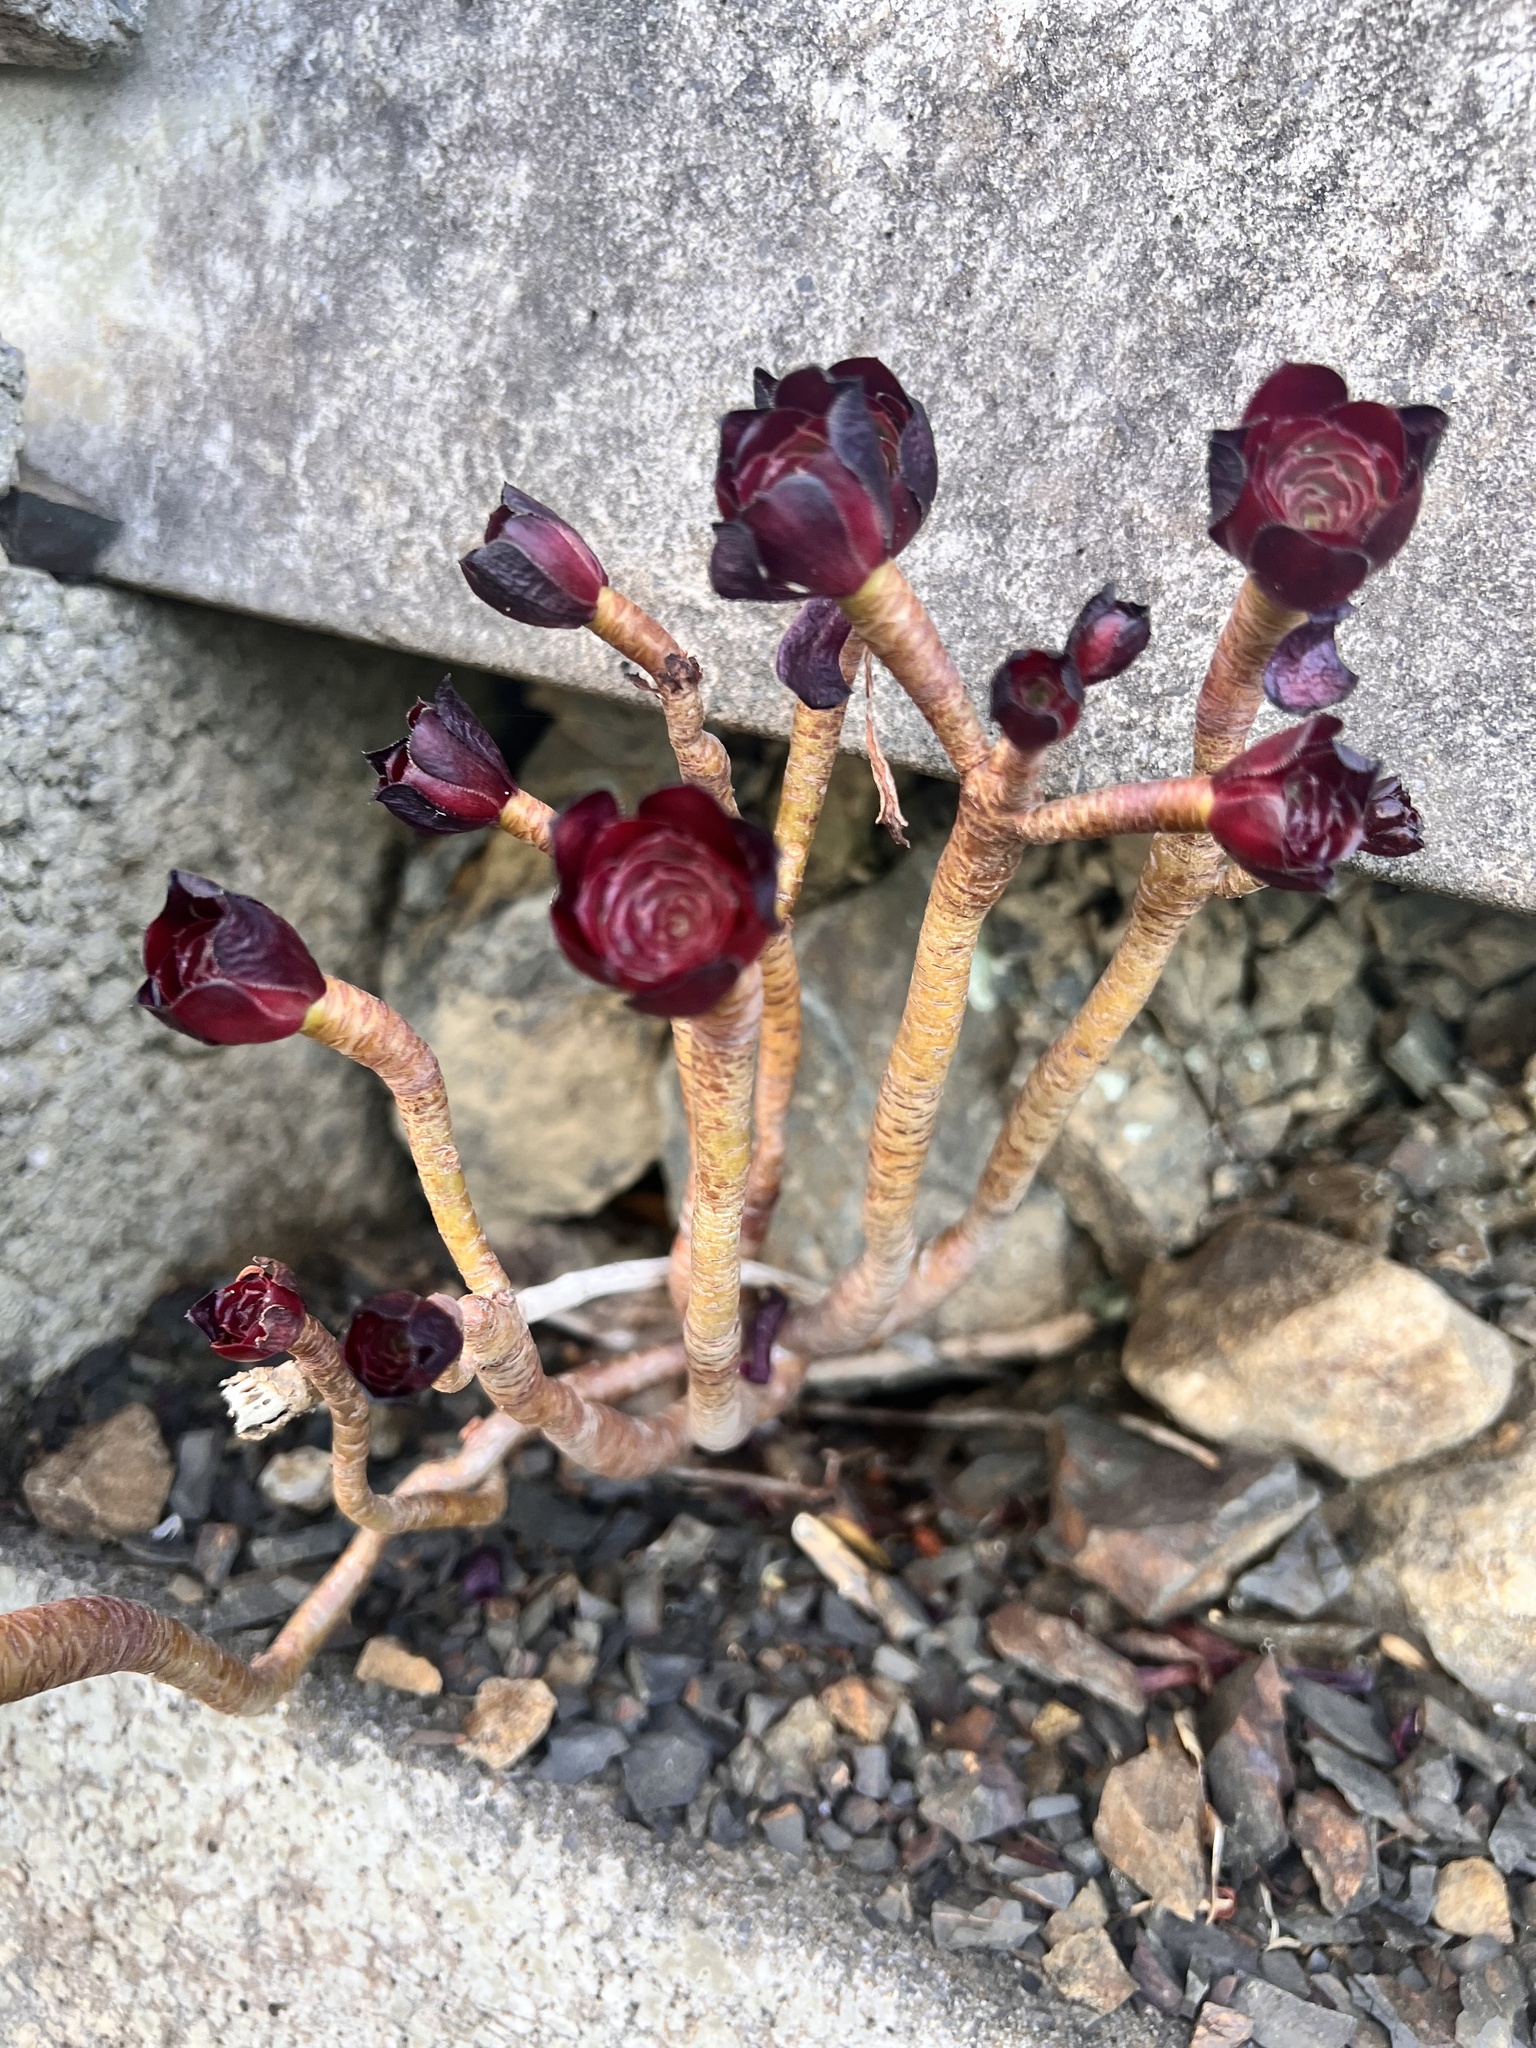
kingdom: Plantae
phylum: Tracheophyta
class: Magnoliopsida
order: Saxifragales
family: Crassulaceae
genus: Aeonium
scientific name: Aeonium arboreum
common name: Tree aeonium
